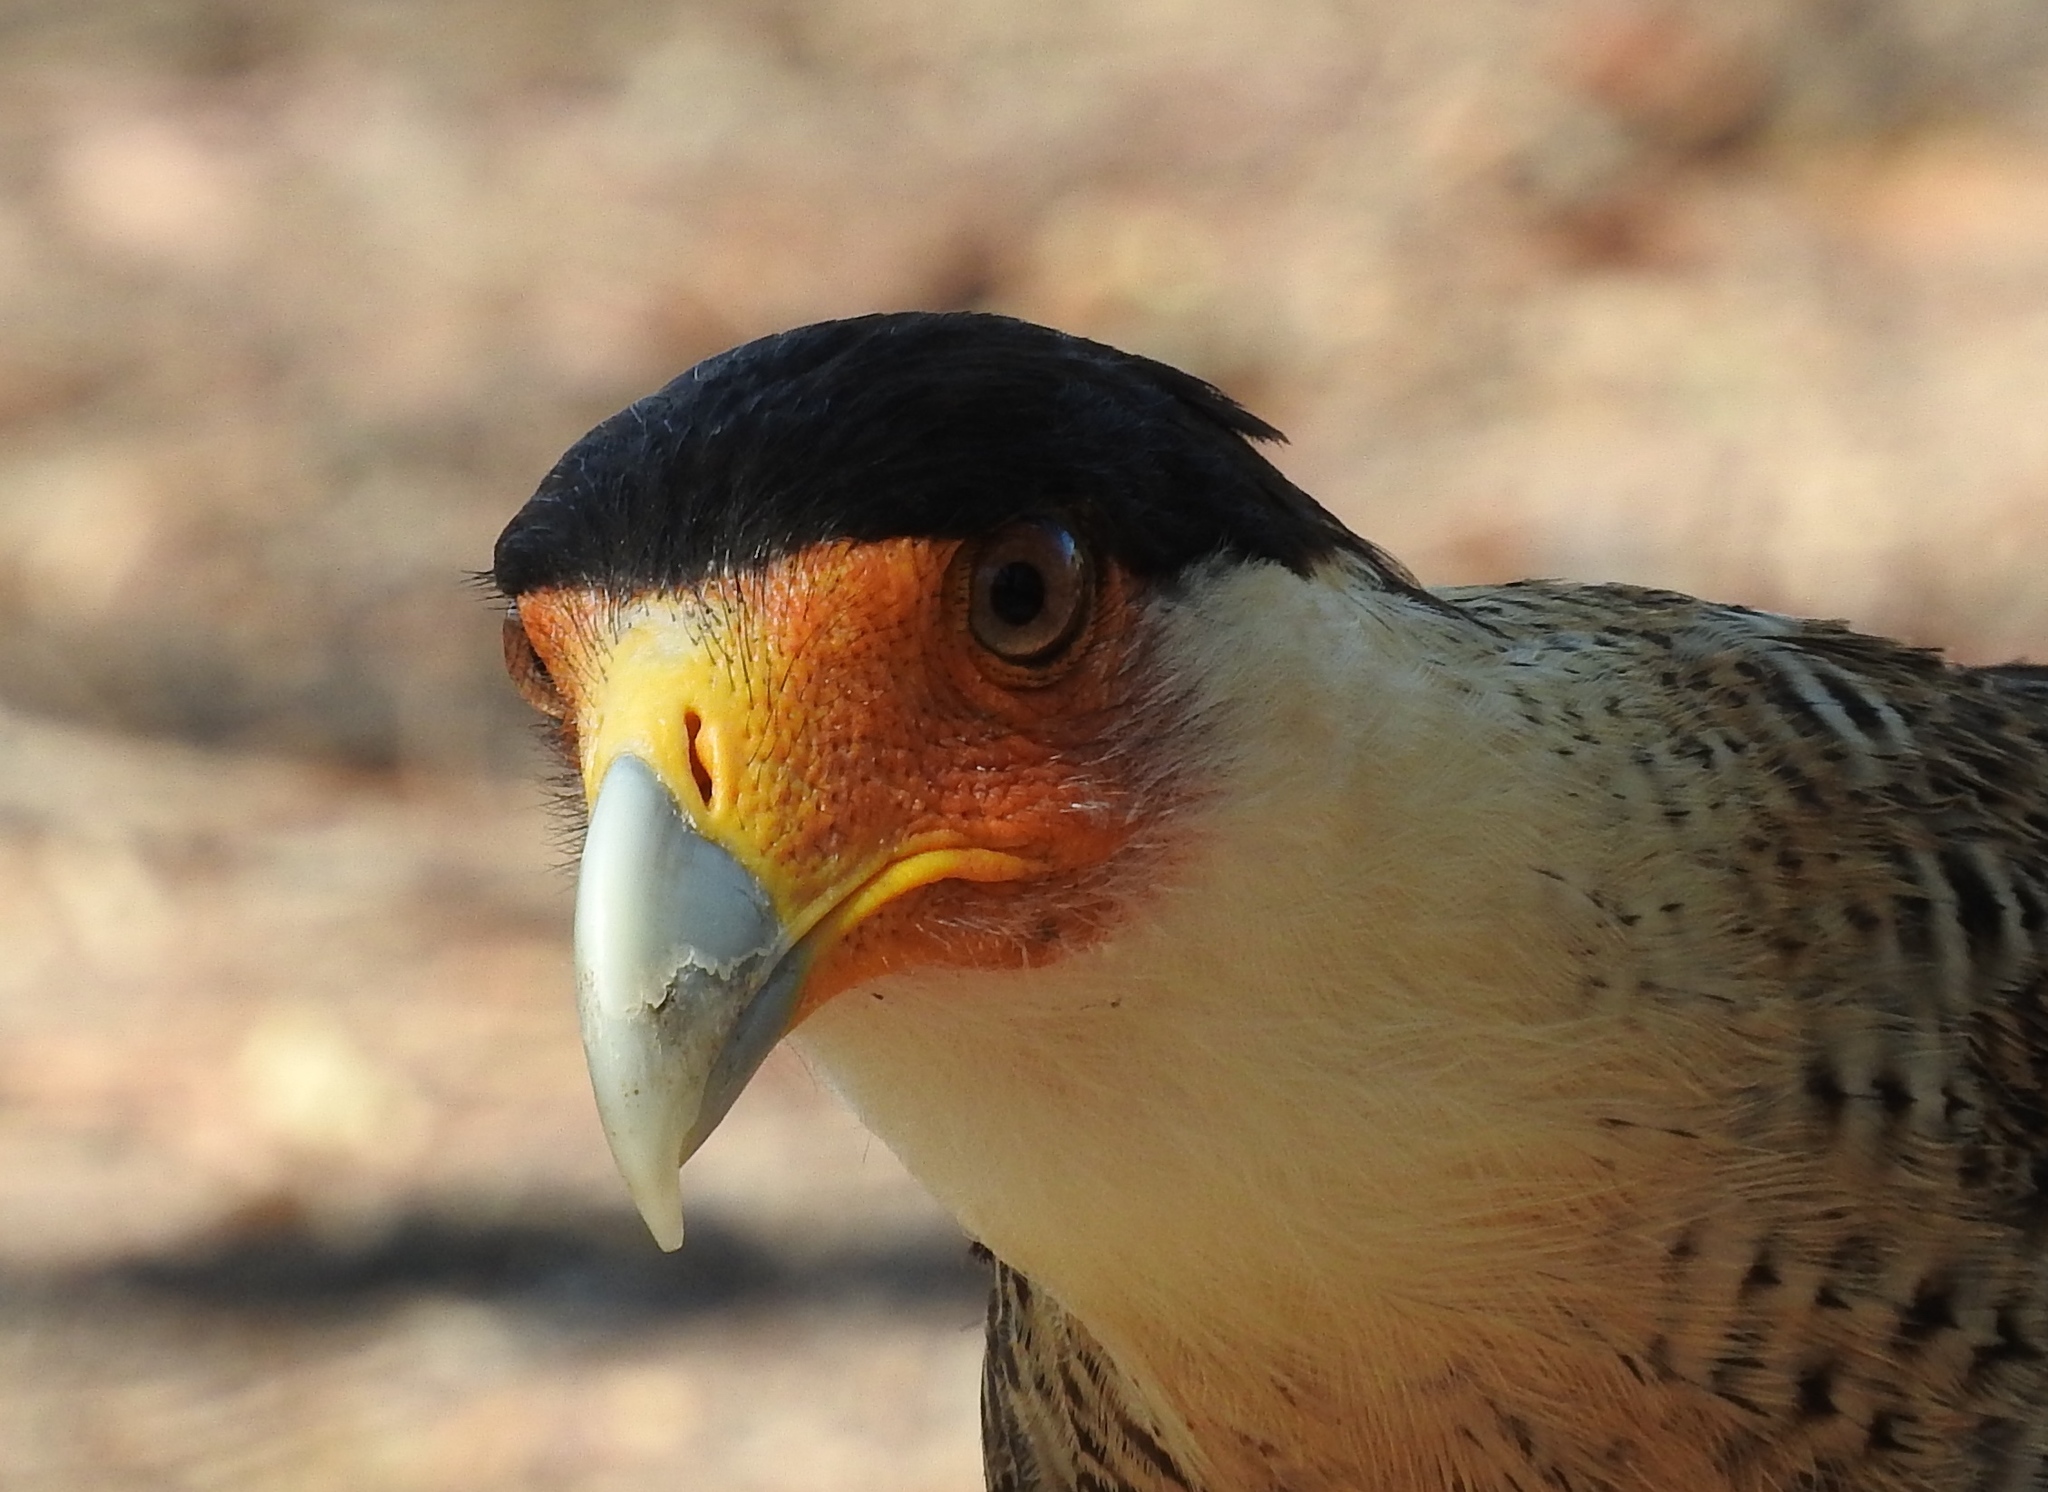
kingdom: Animalia
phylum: Chordata
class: Aves
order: Falconiformes
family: Falconidae
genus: Caracara
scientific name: Caracara plancus
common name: Southern caracara
